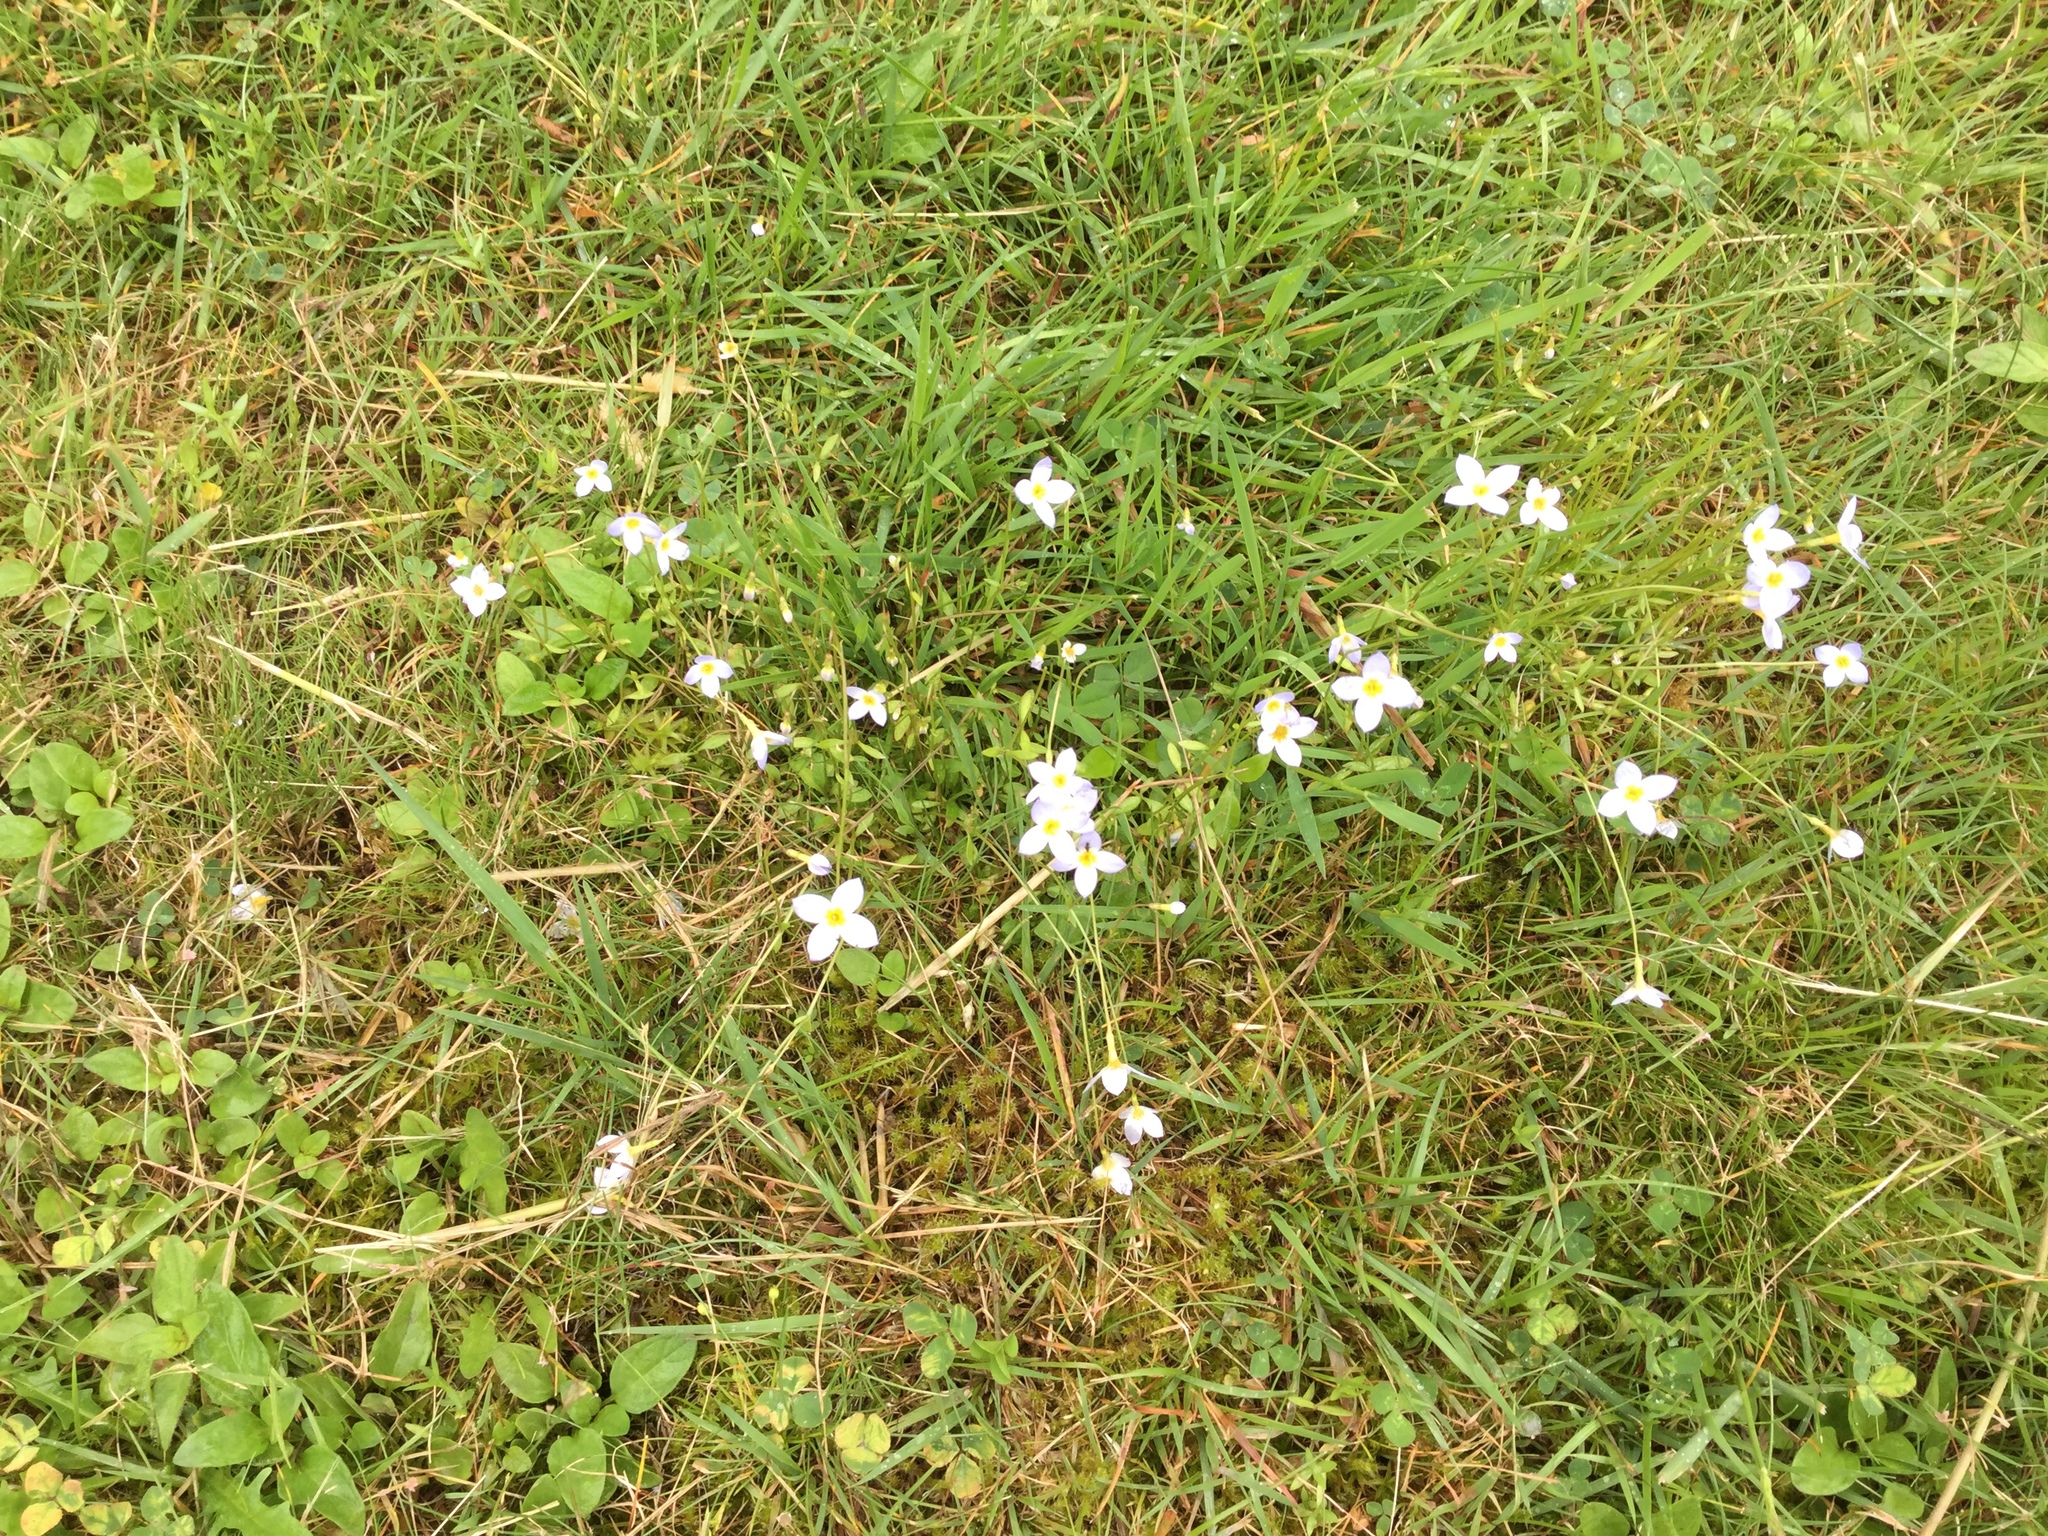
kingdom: Plantae
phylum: Tracheophyta
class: Magnoliopsida
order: Gentianales
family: Rubiaceae
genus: Houstonia
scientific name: Houstonia caerulea
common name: Bluets
